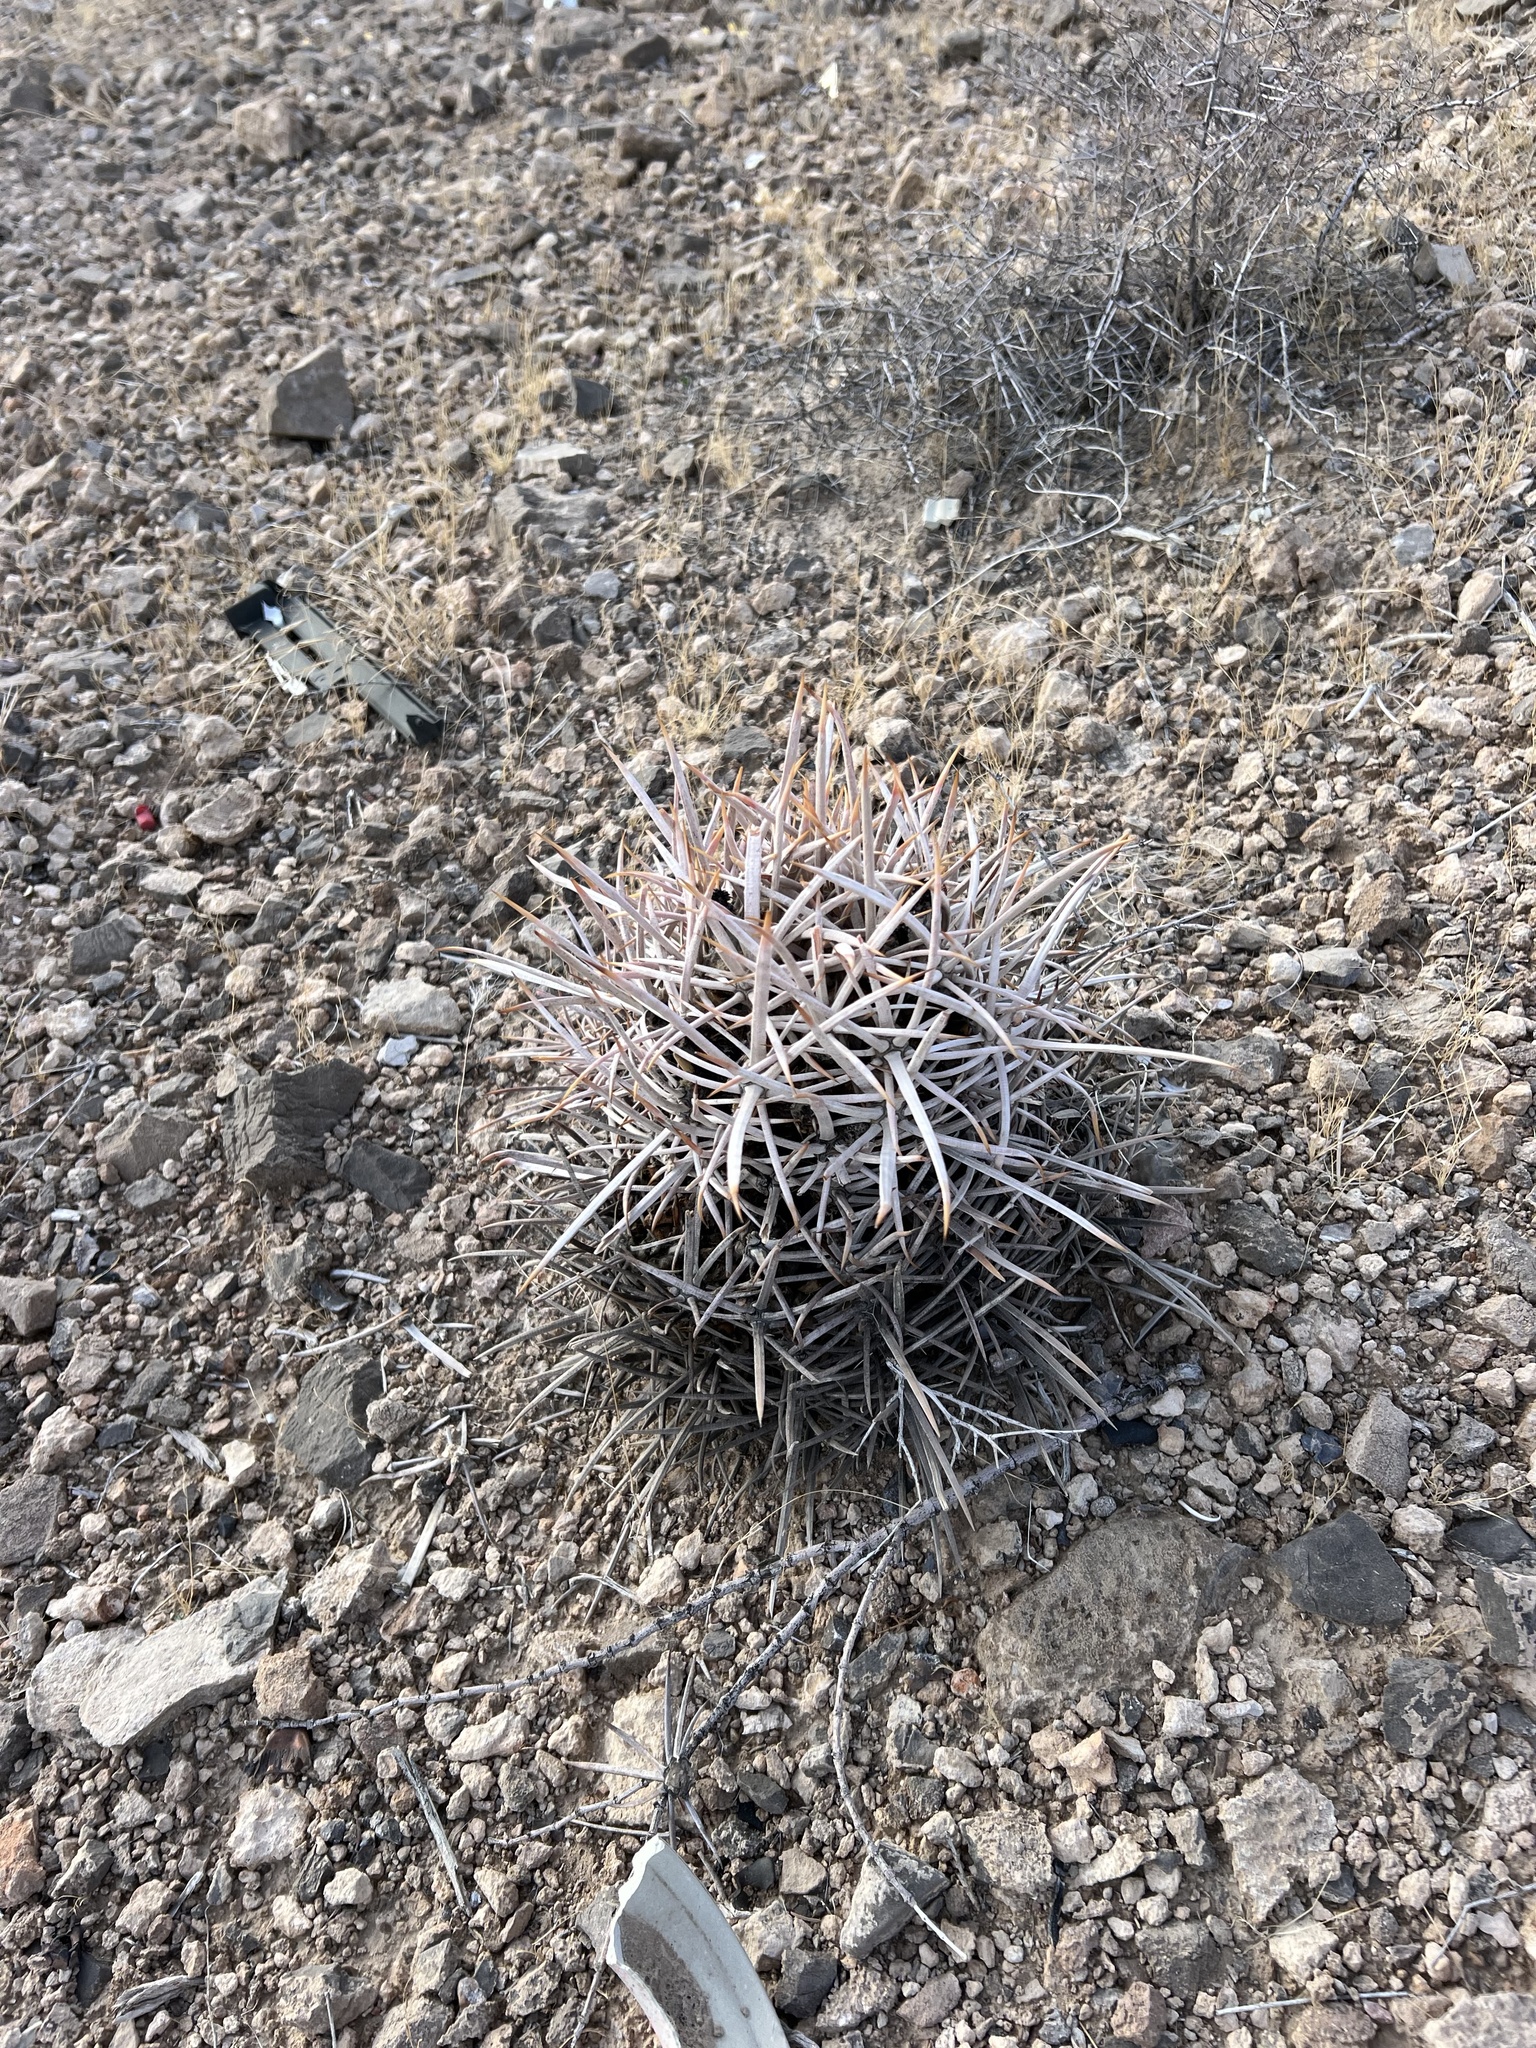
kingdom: Plantae
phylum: Tracheophyta
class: Magnoliopsida
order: Caryophyllales
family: Cactaceae
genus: Echinocactus
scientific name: Echinocactus polycephalus
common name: Cottontop cactus
